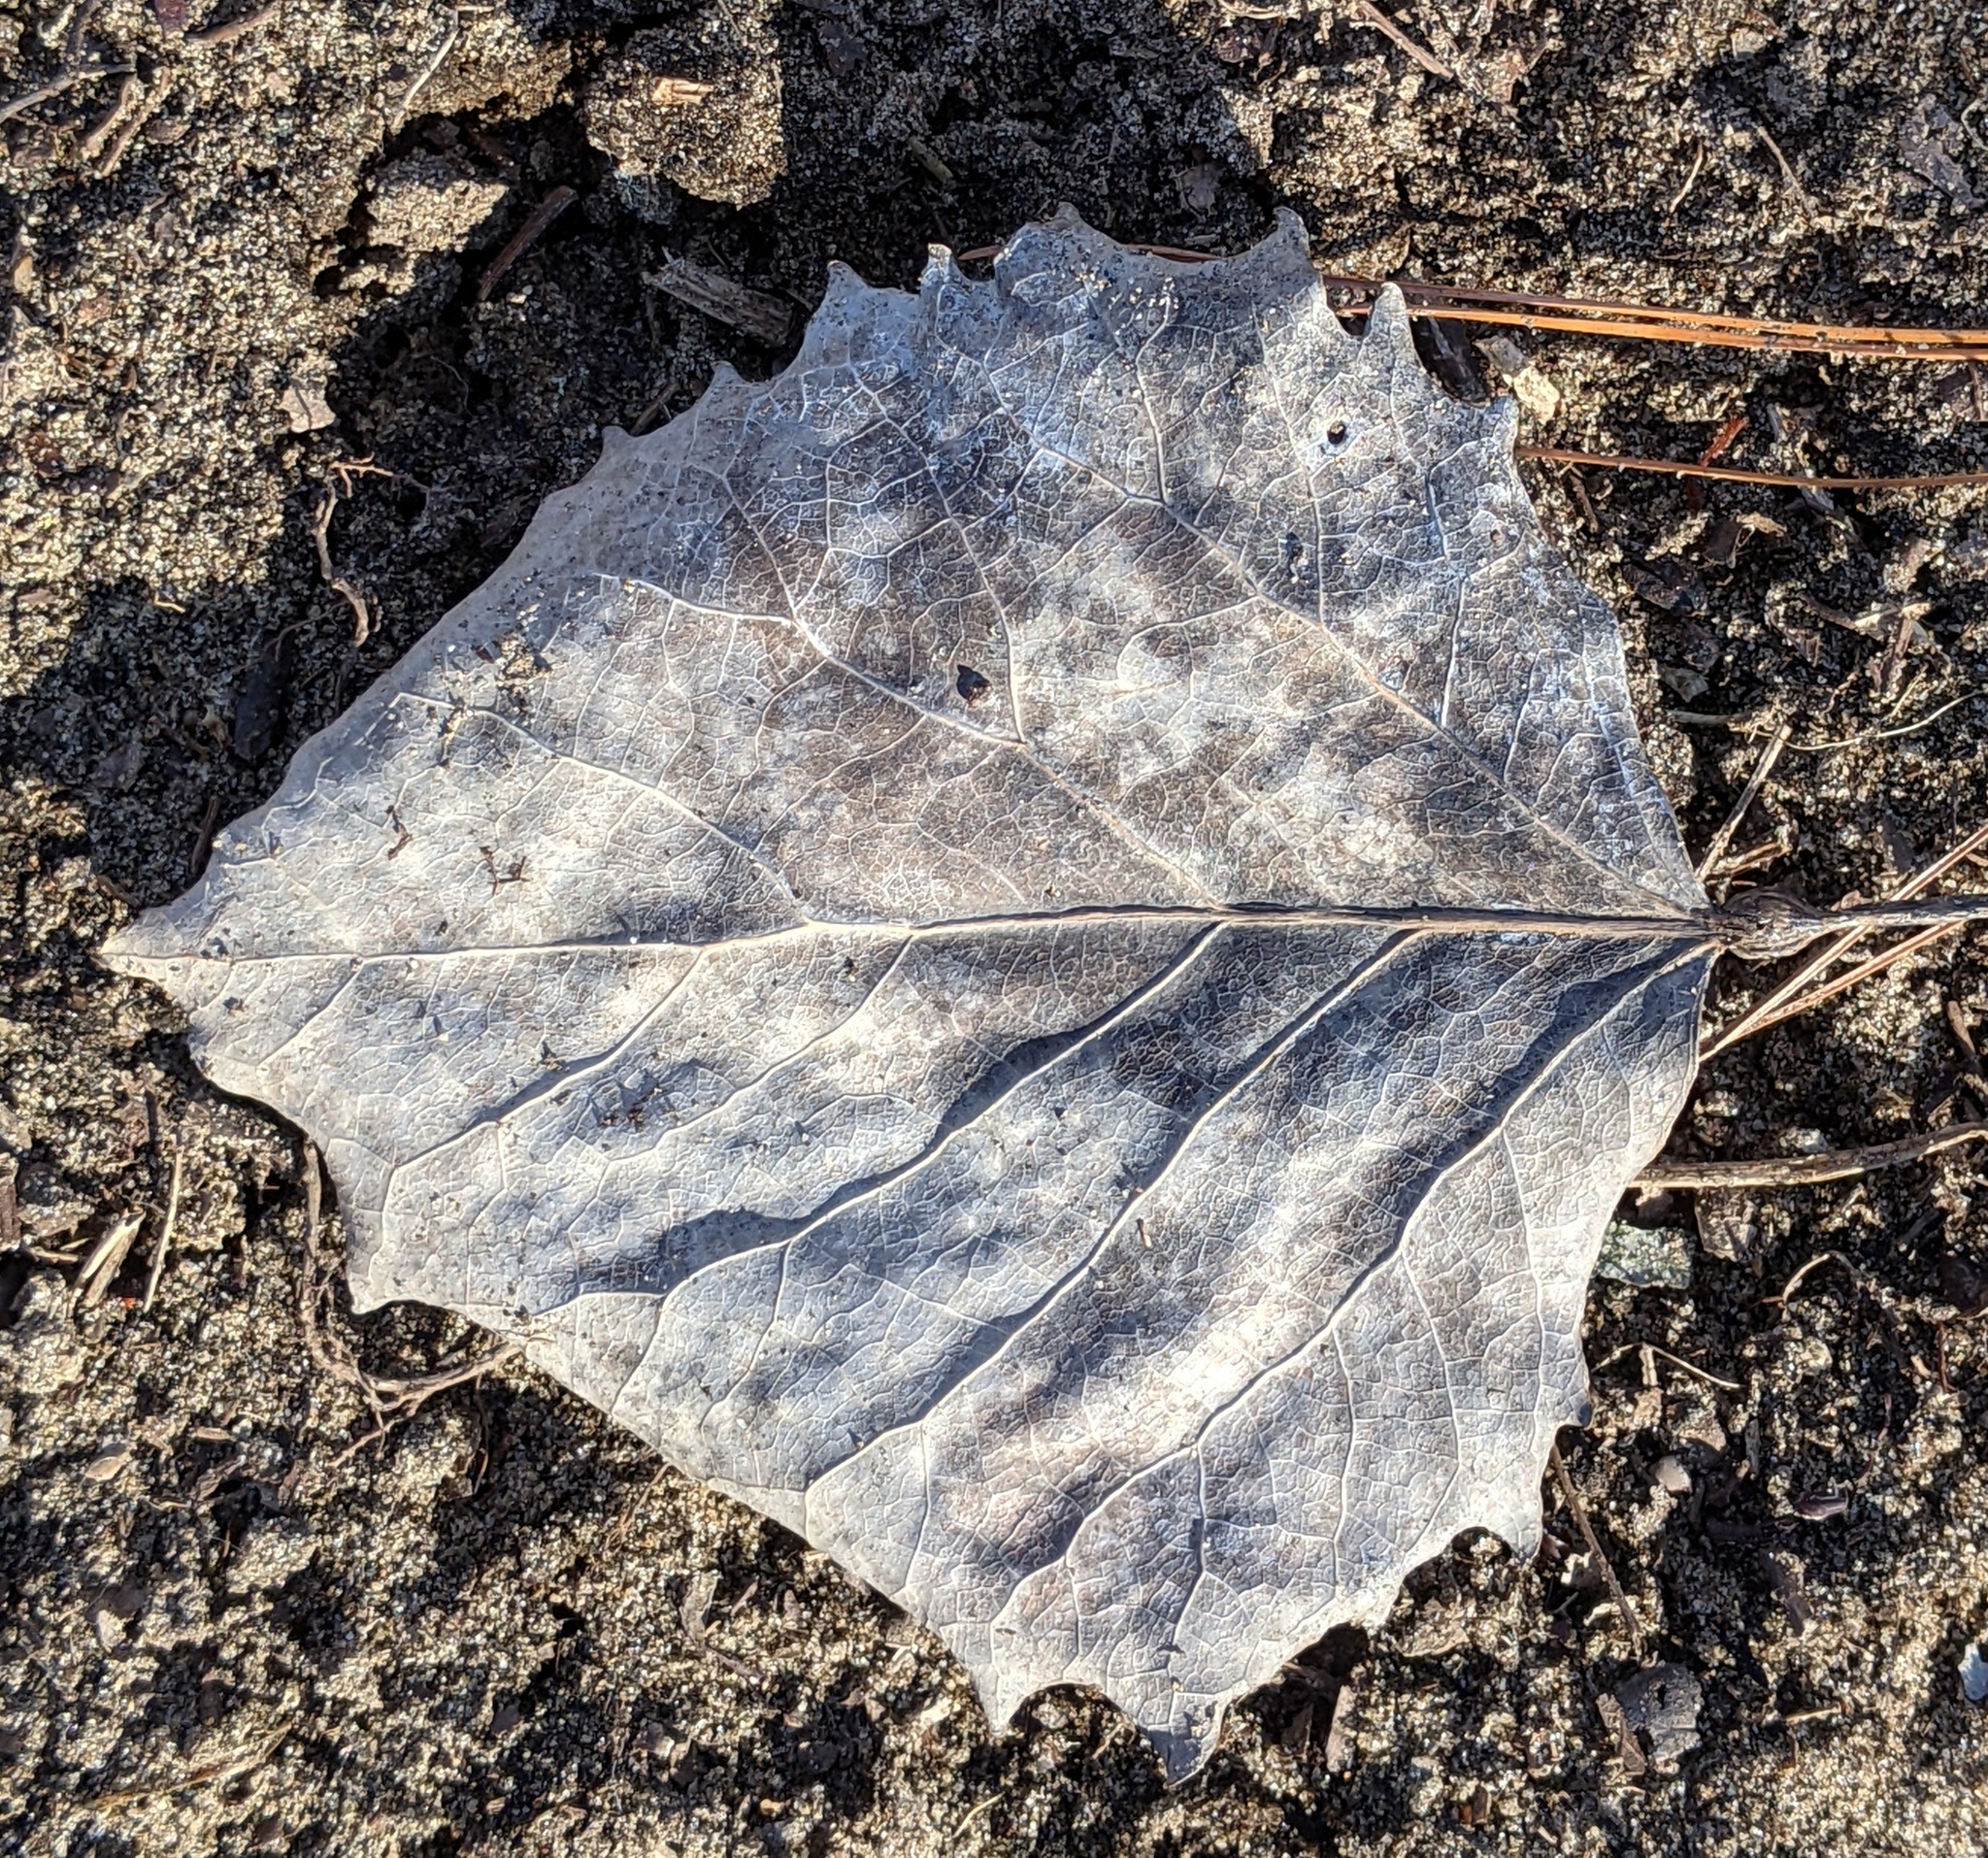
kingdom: Animalia
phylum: Arthropoda
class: Insecta
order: Lepidoptera
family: Nepticulidae
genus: Ectoedemia
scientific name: Ectoedemia populella
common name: Aspen petiole gall moth
